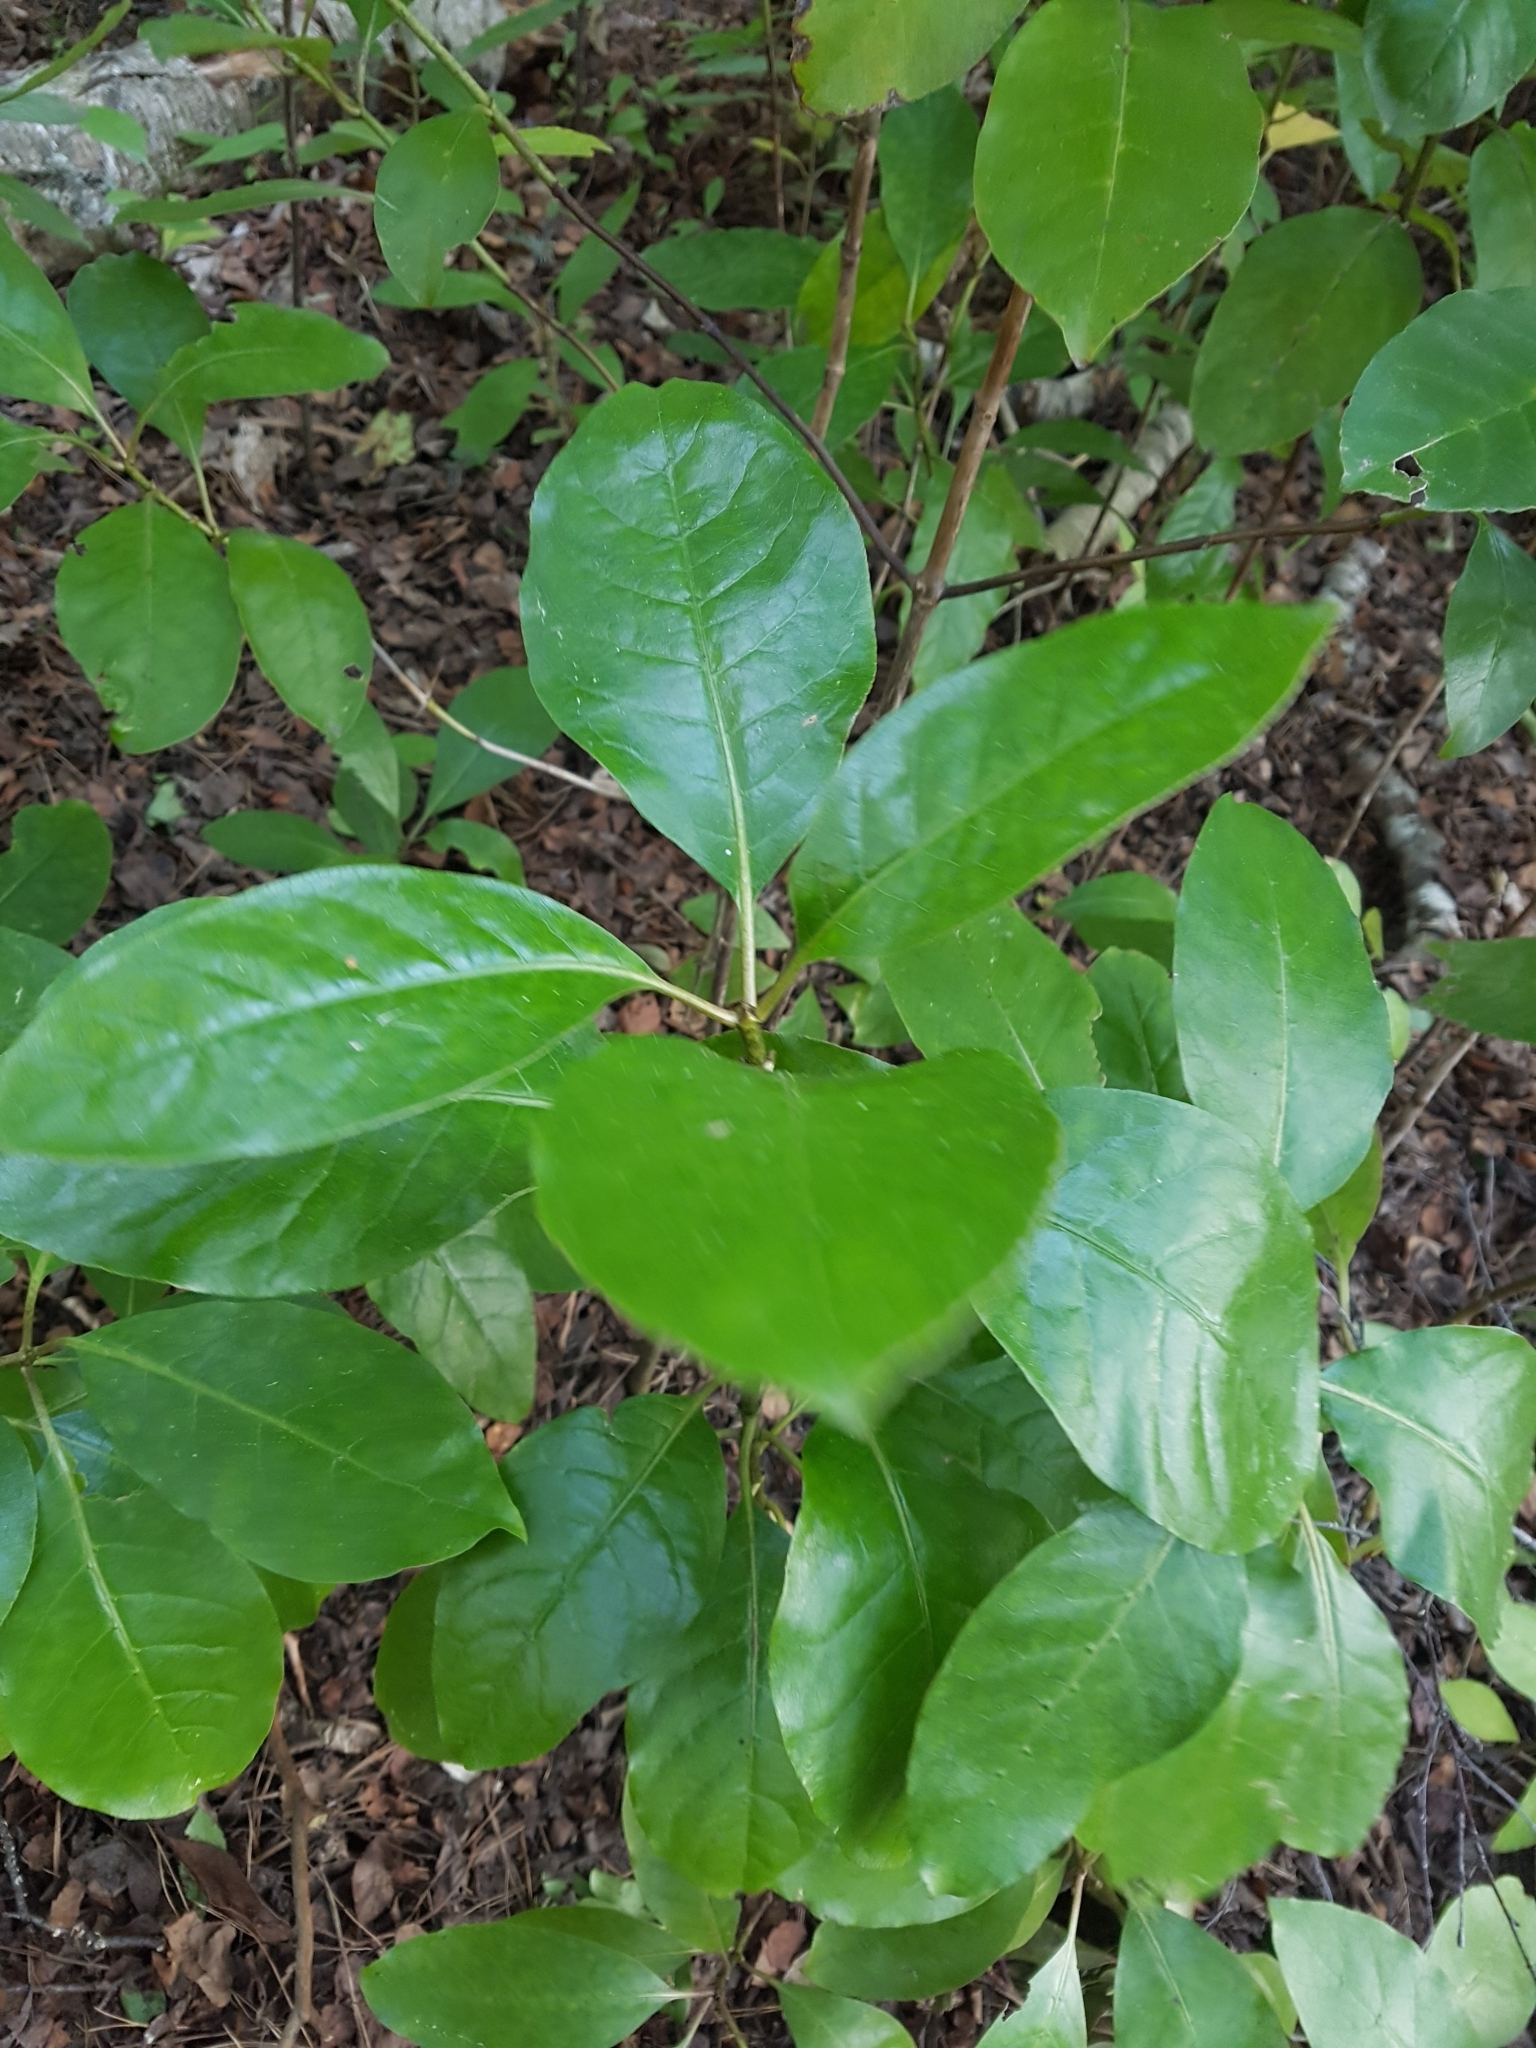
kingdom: Plantae
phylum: Tracheophyta
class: Magnoliopsida
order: Gentianales
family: Rubiaceae
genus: Coprosma
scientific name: Coprosma autumnalis
